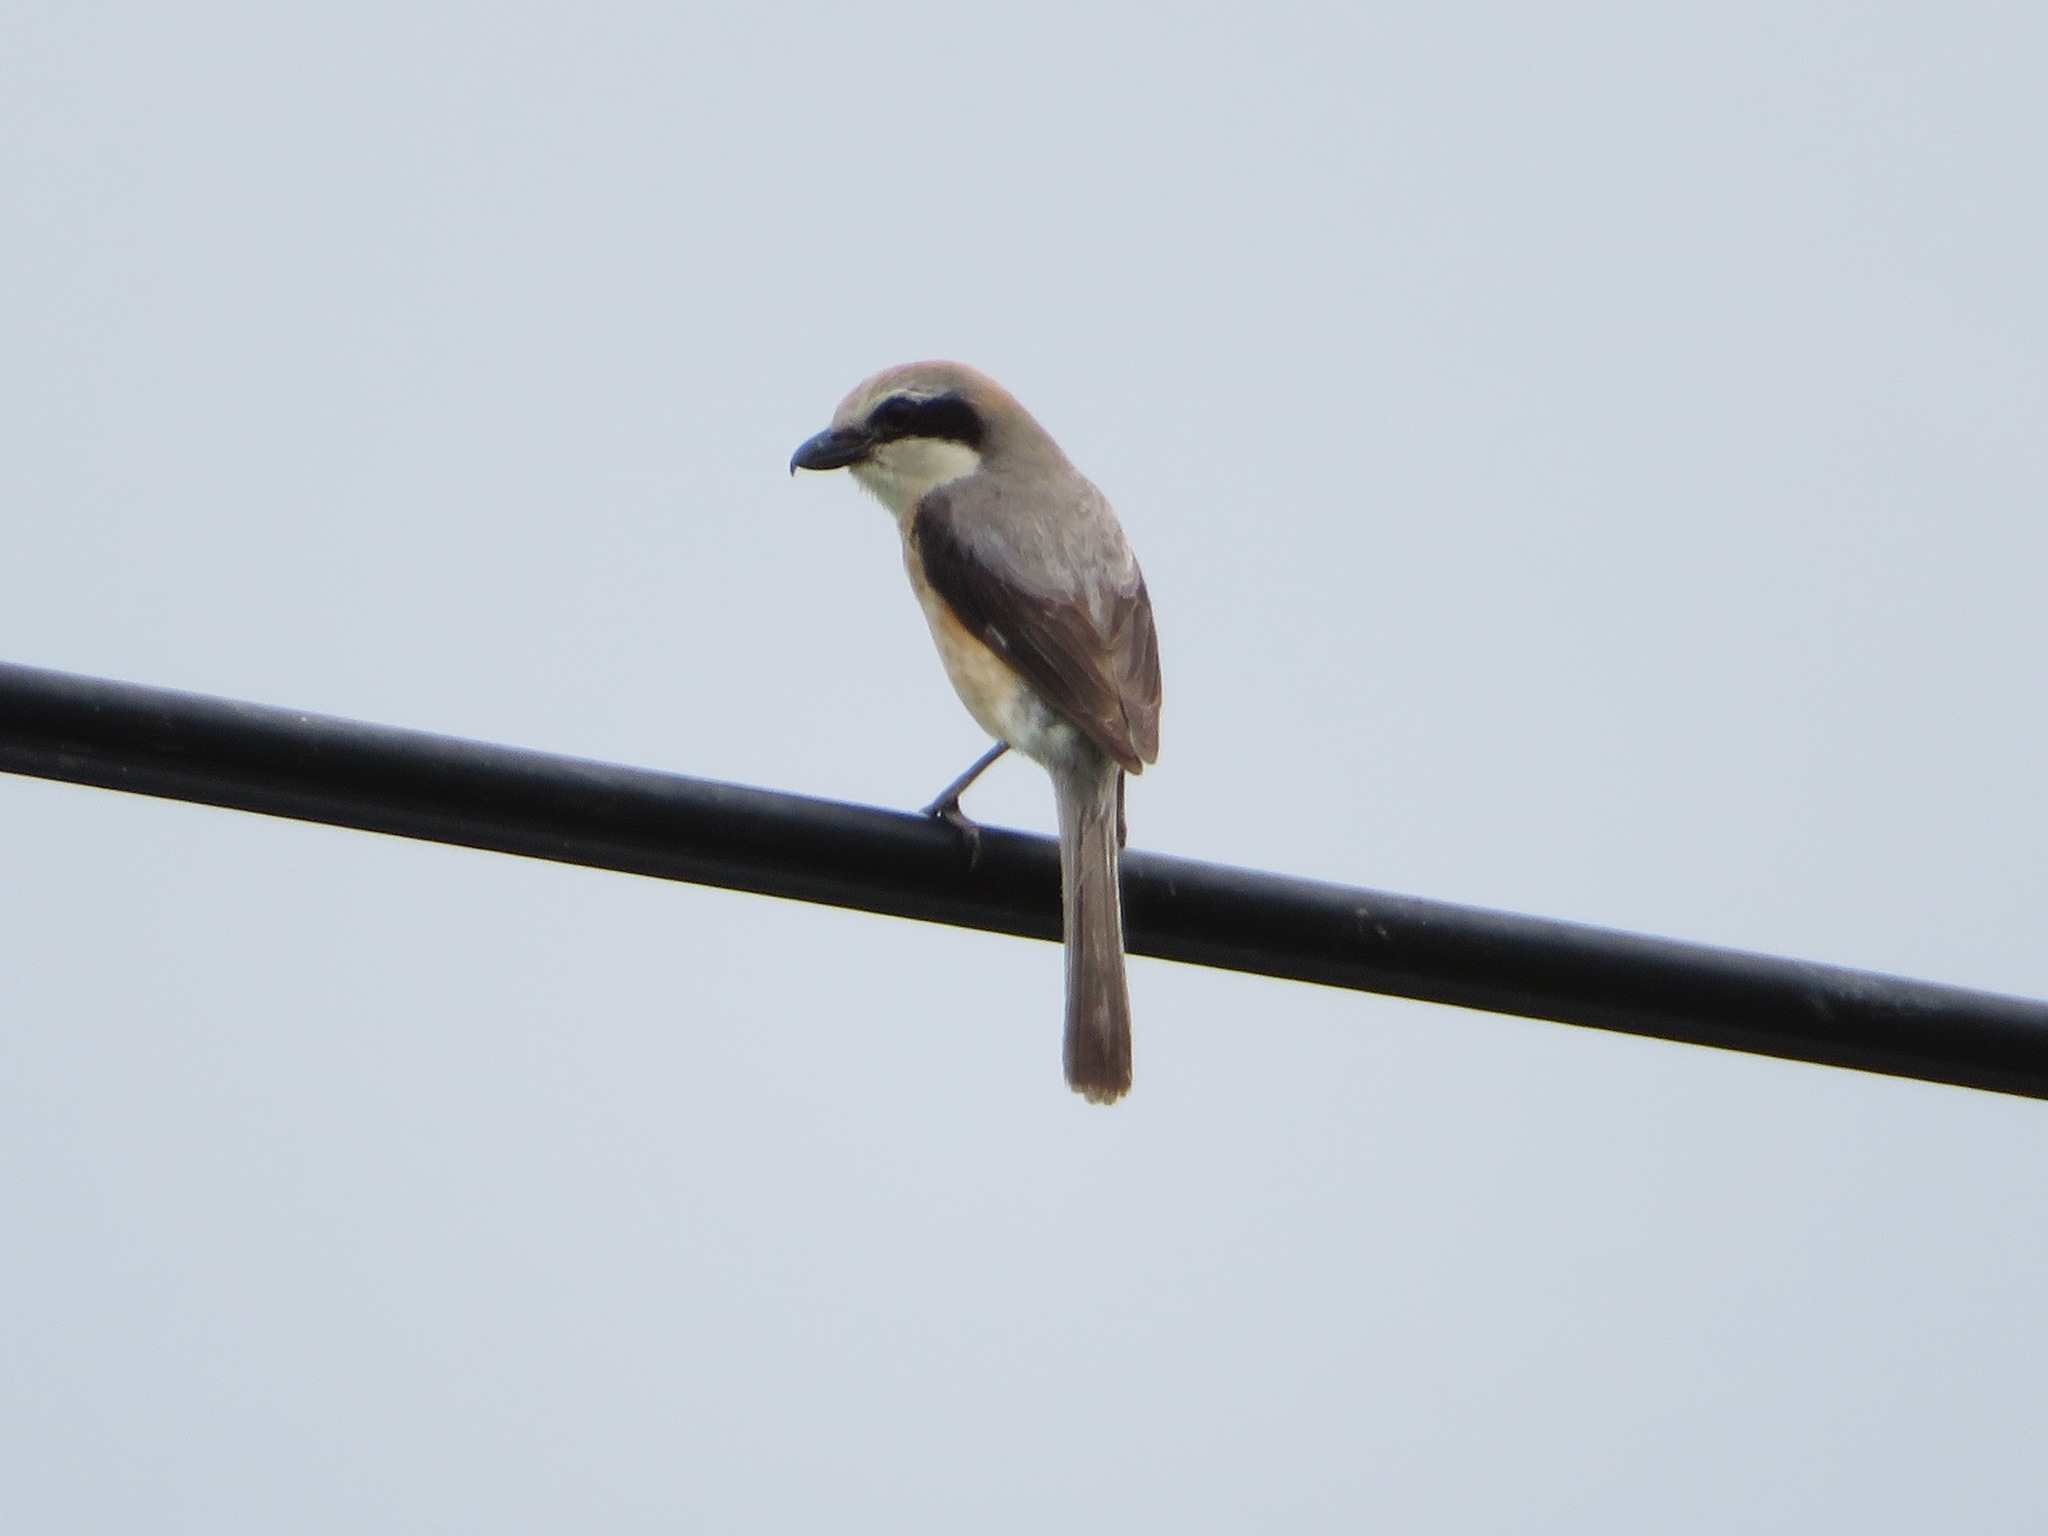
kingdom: Animalia
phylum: Chordata
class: Aves
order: Passeriformes
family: Laniidae
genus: Lanius
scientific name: Lanius bucephalus
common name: Bull-headed shrike
